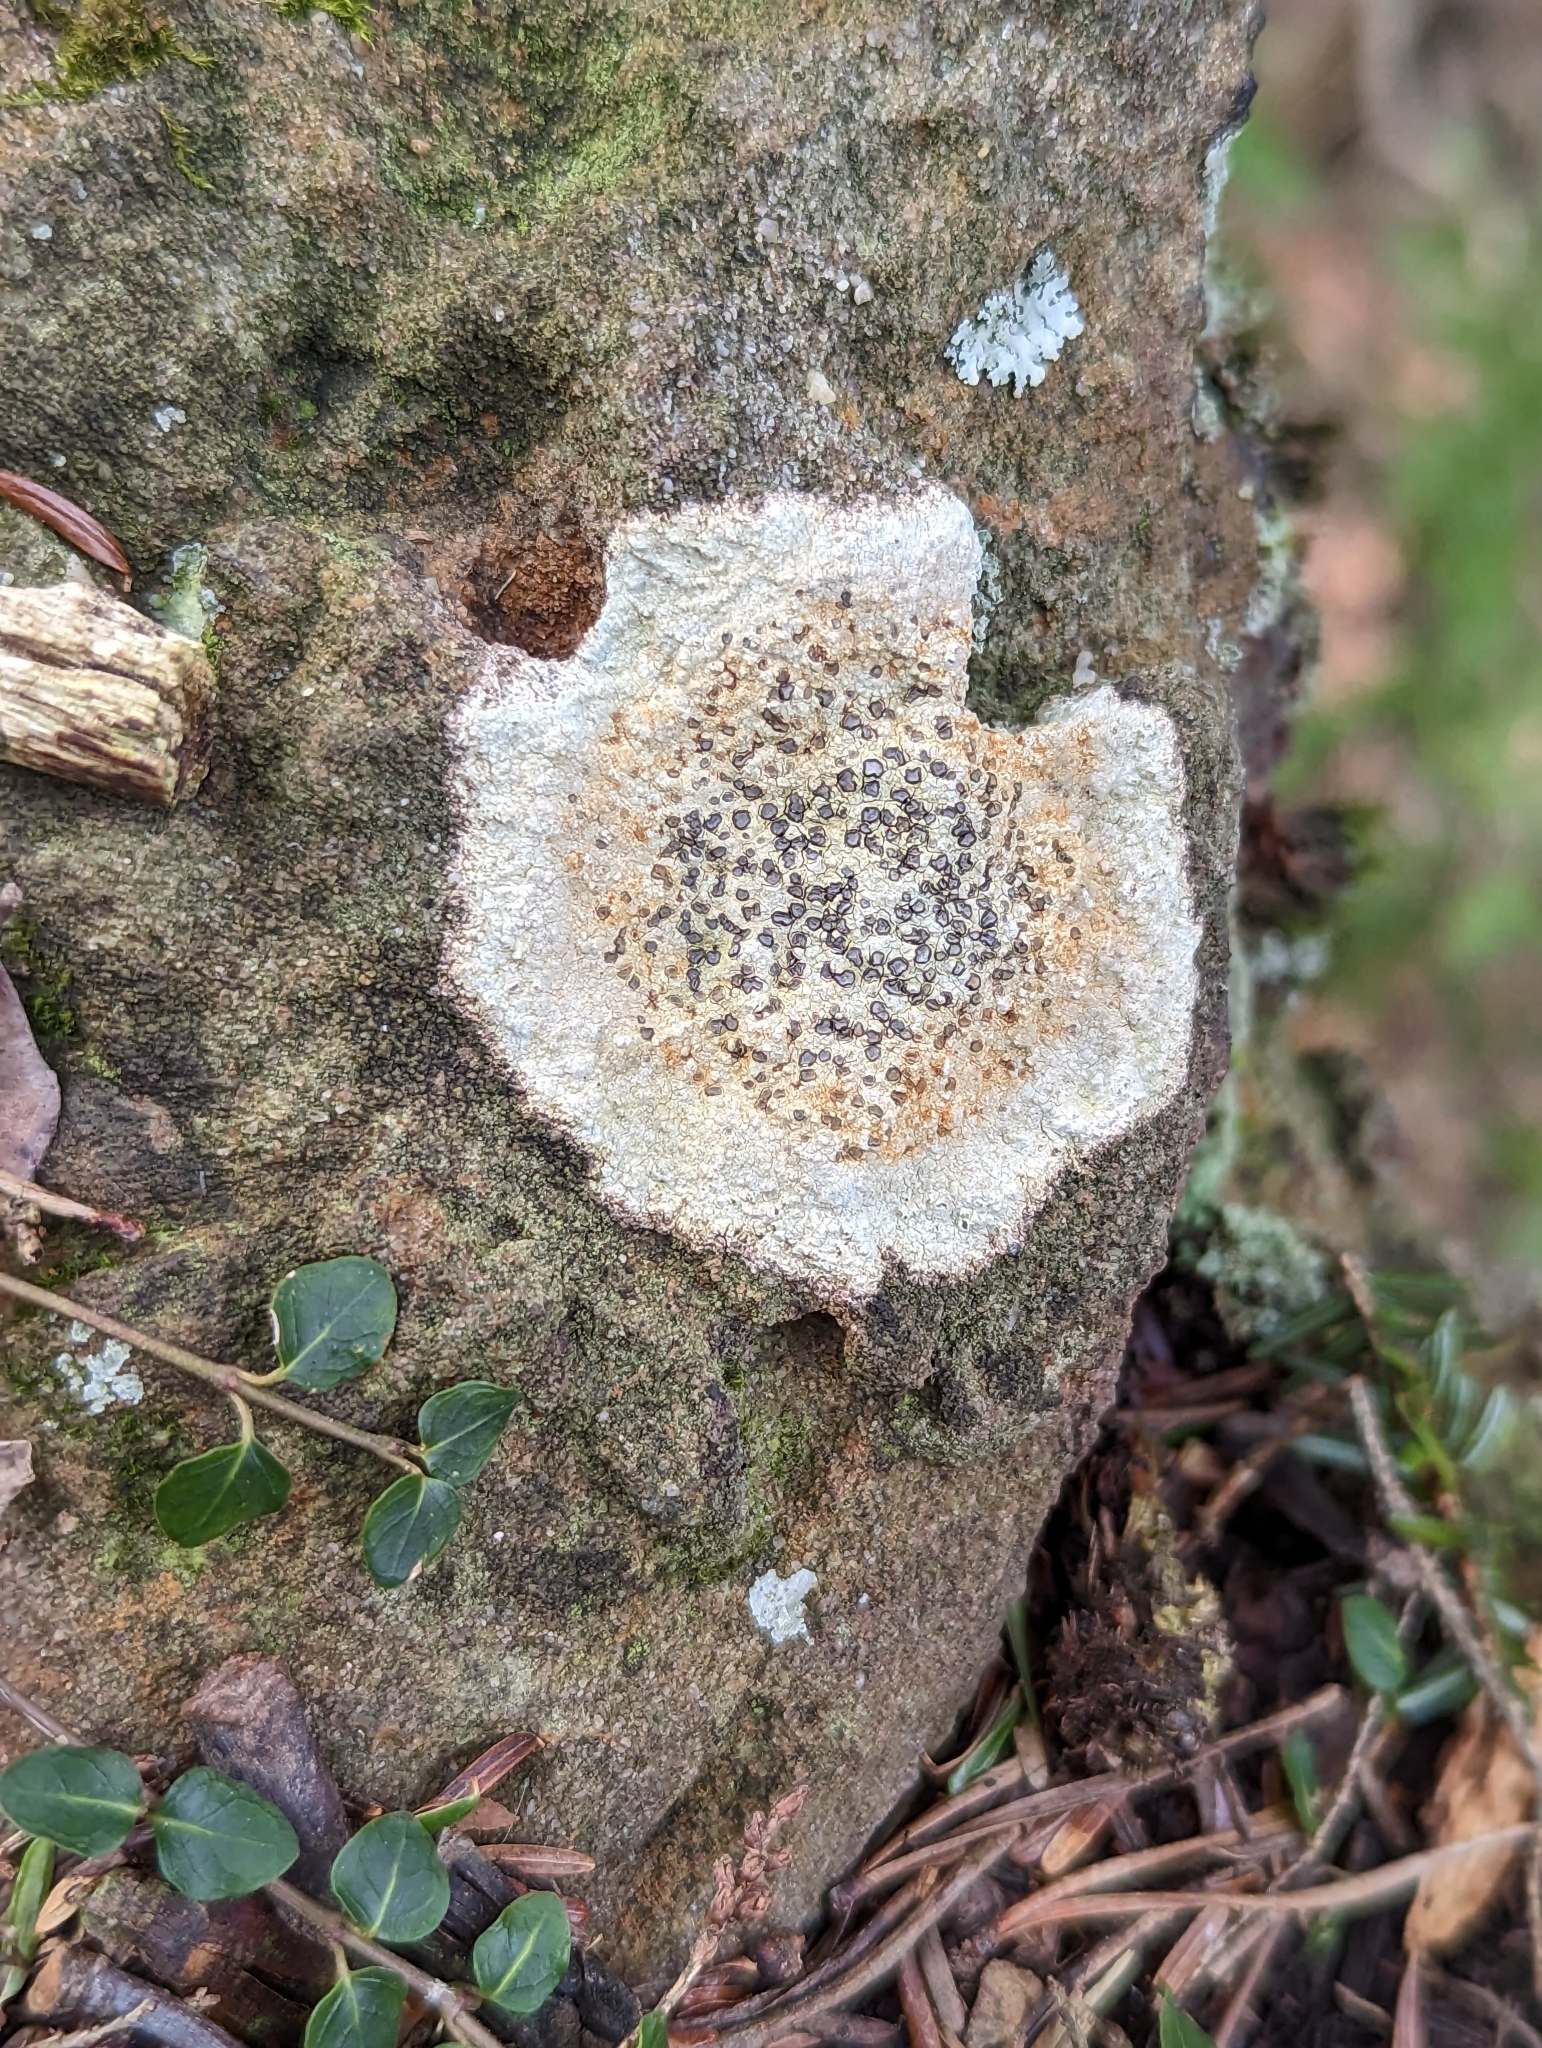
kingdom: Fungi
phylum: Ascomycota
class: Lecanoromycetes
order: Lecideales
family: Lecideaceae
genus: Porpidia
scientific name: Porpidia albocaerulescens
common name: Smokey-eyed boulder lichen
